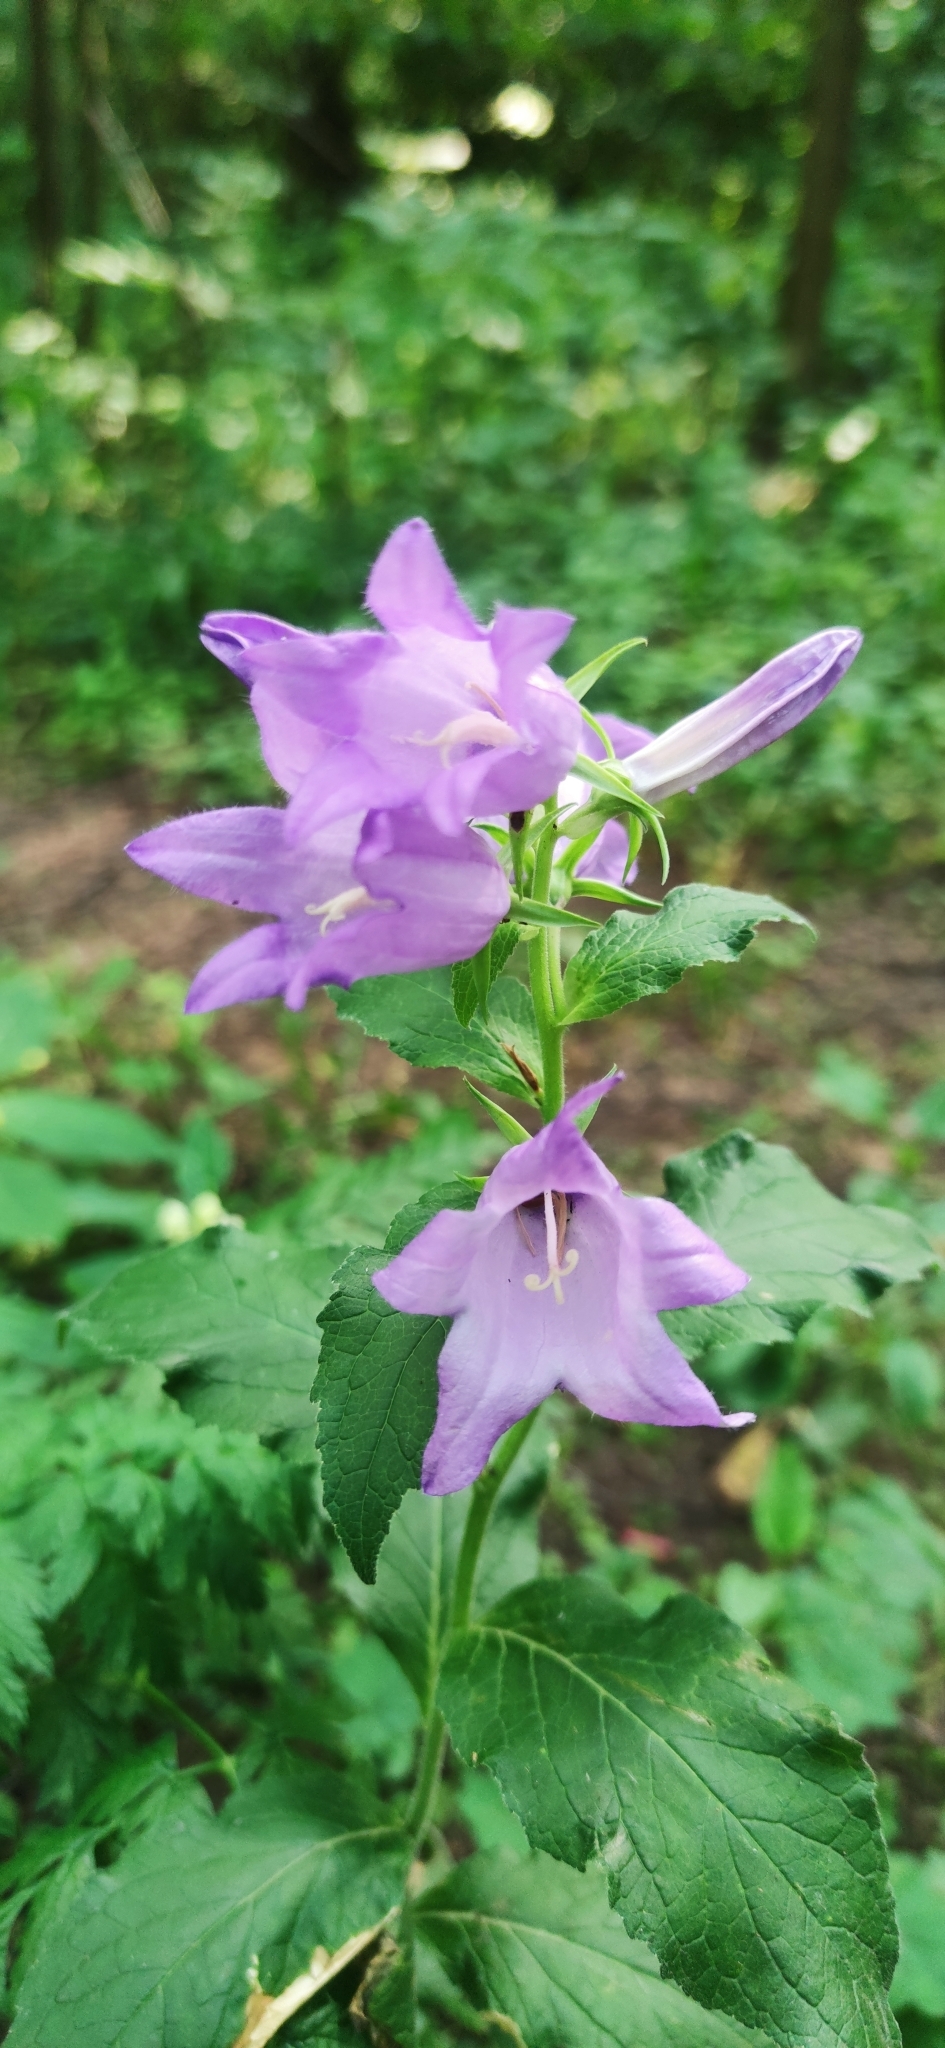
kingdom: Plantae
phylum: Tracheophyta
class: Magnoliopsida
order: Asterales
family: Campanulaceae
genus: Campanula
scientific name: Campanula latifolia
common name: Giant bellflower
